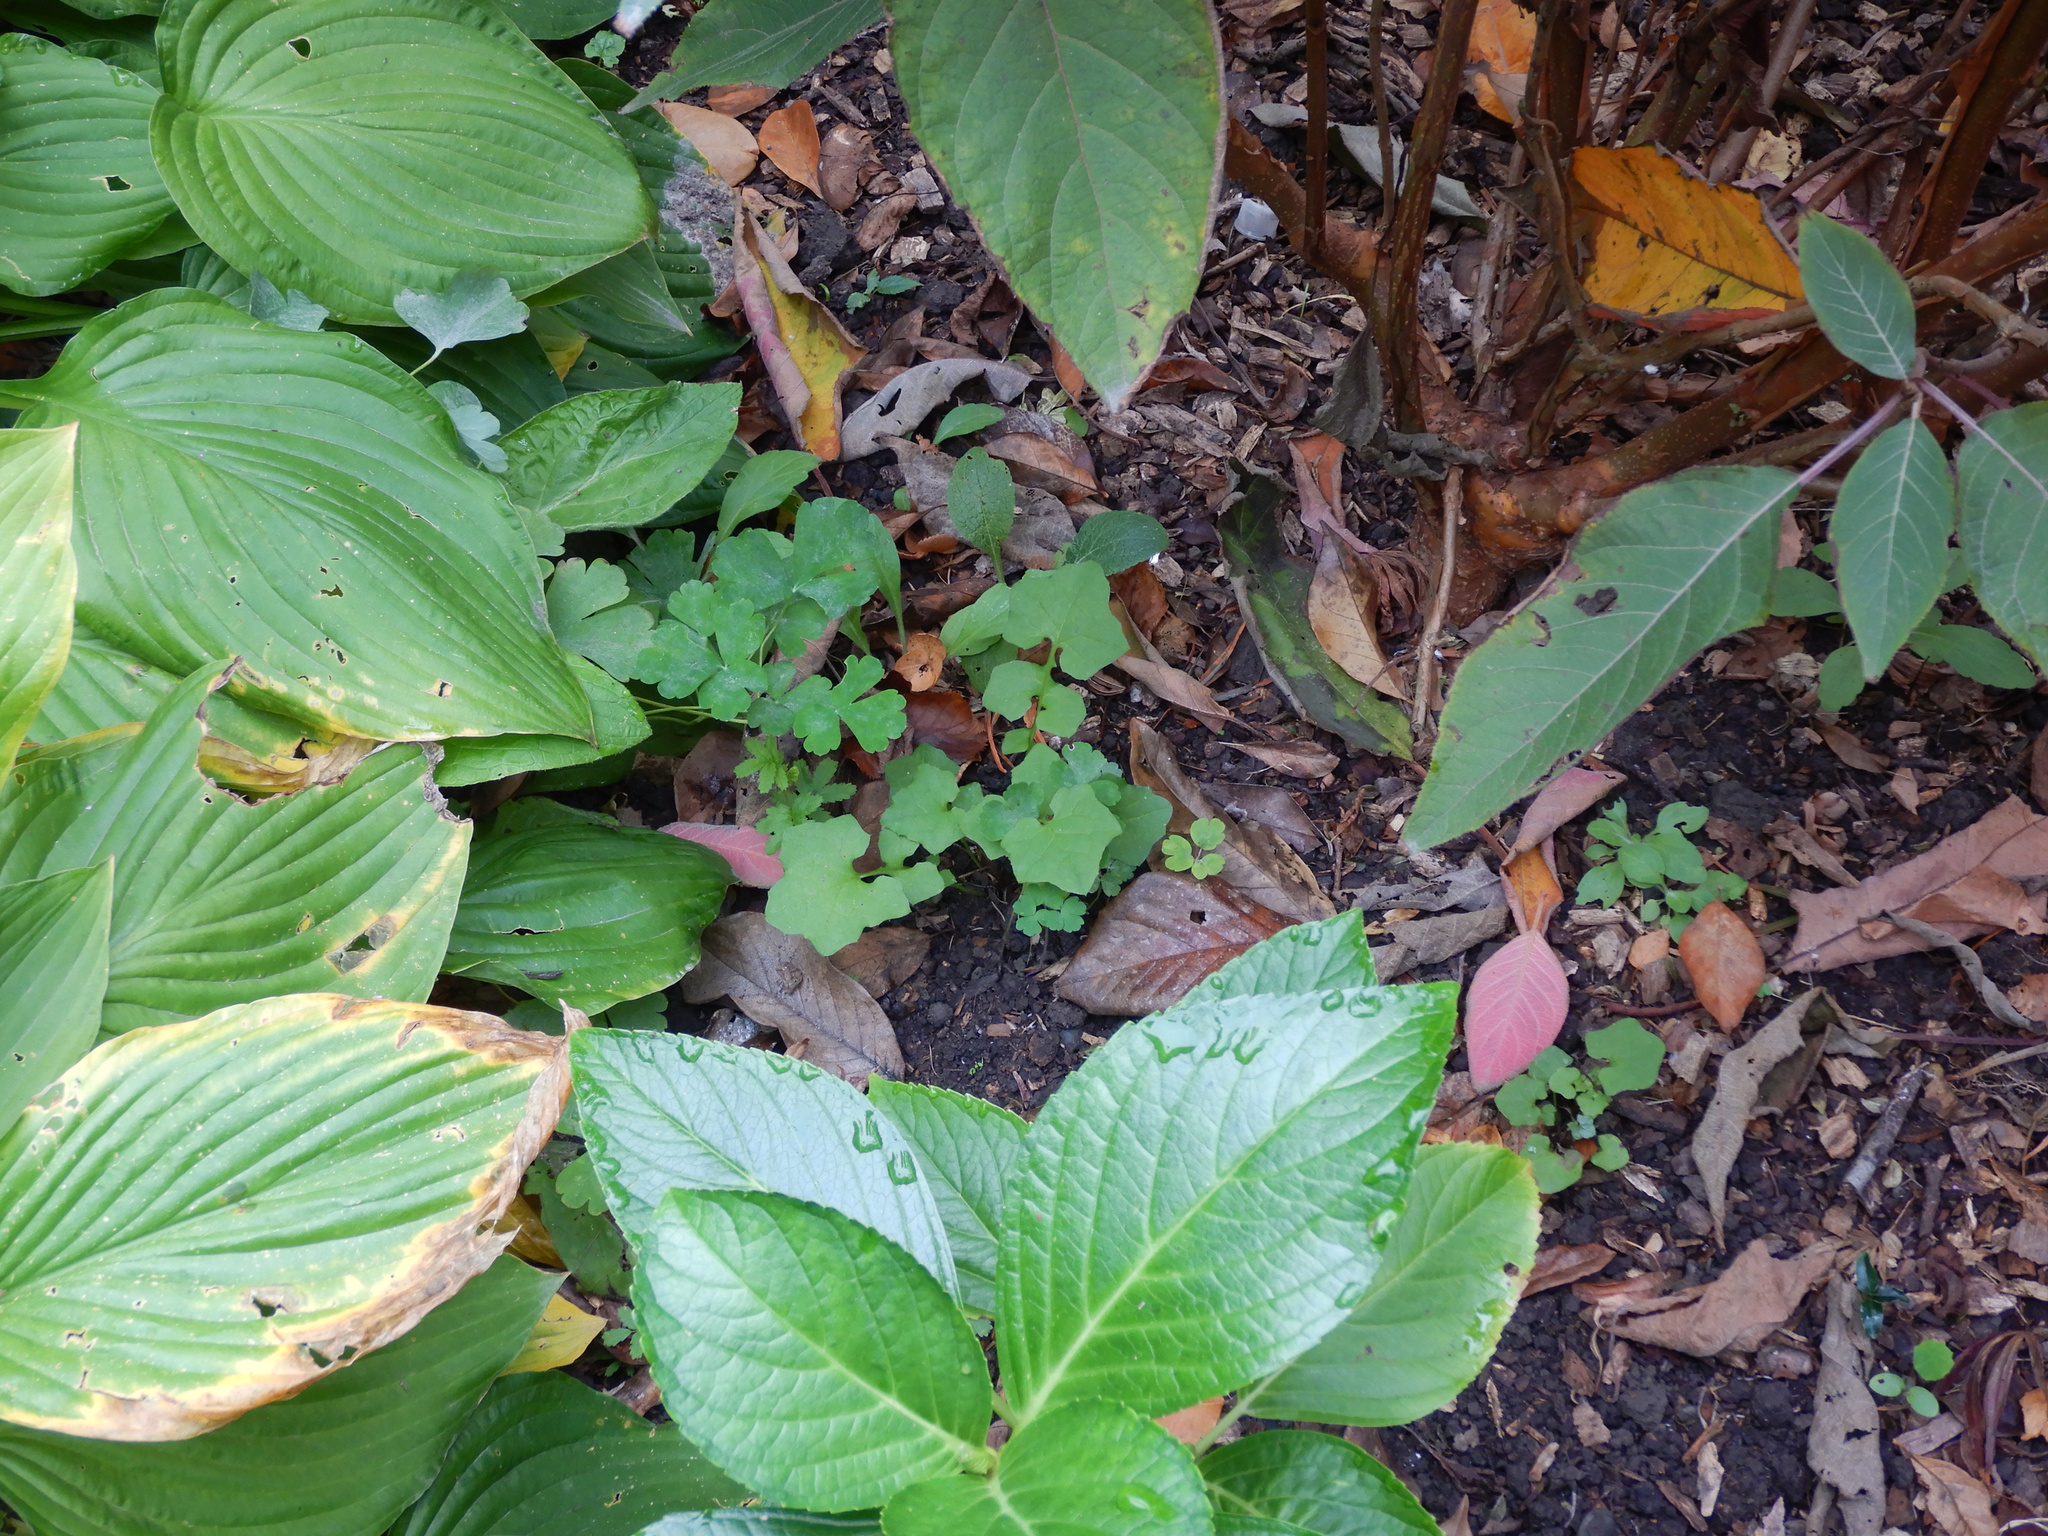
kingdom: Plantae
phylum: Tracheophyta
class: Magnoliopsida
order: Asterales
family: Asteraceae
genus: Mycelis
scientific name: Mycelis muralis
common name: Wall lettuce
